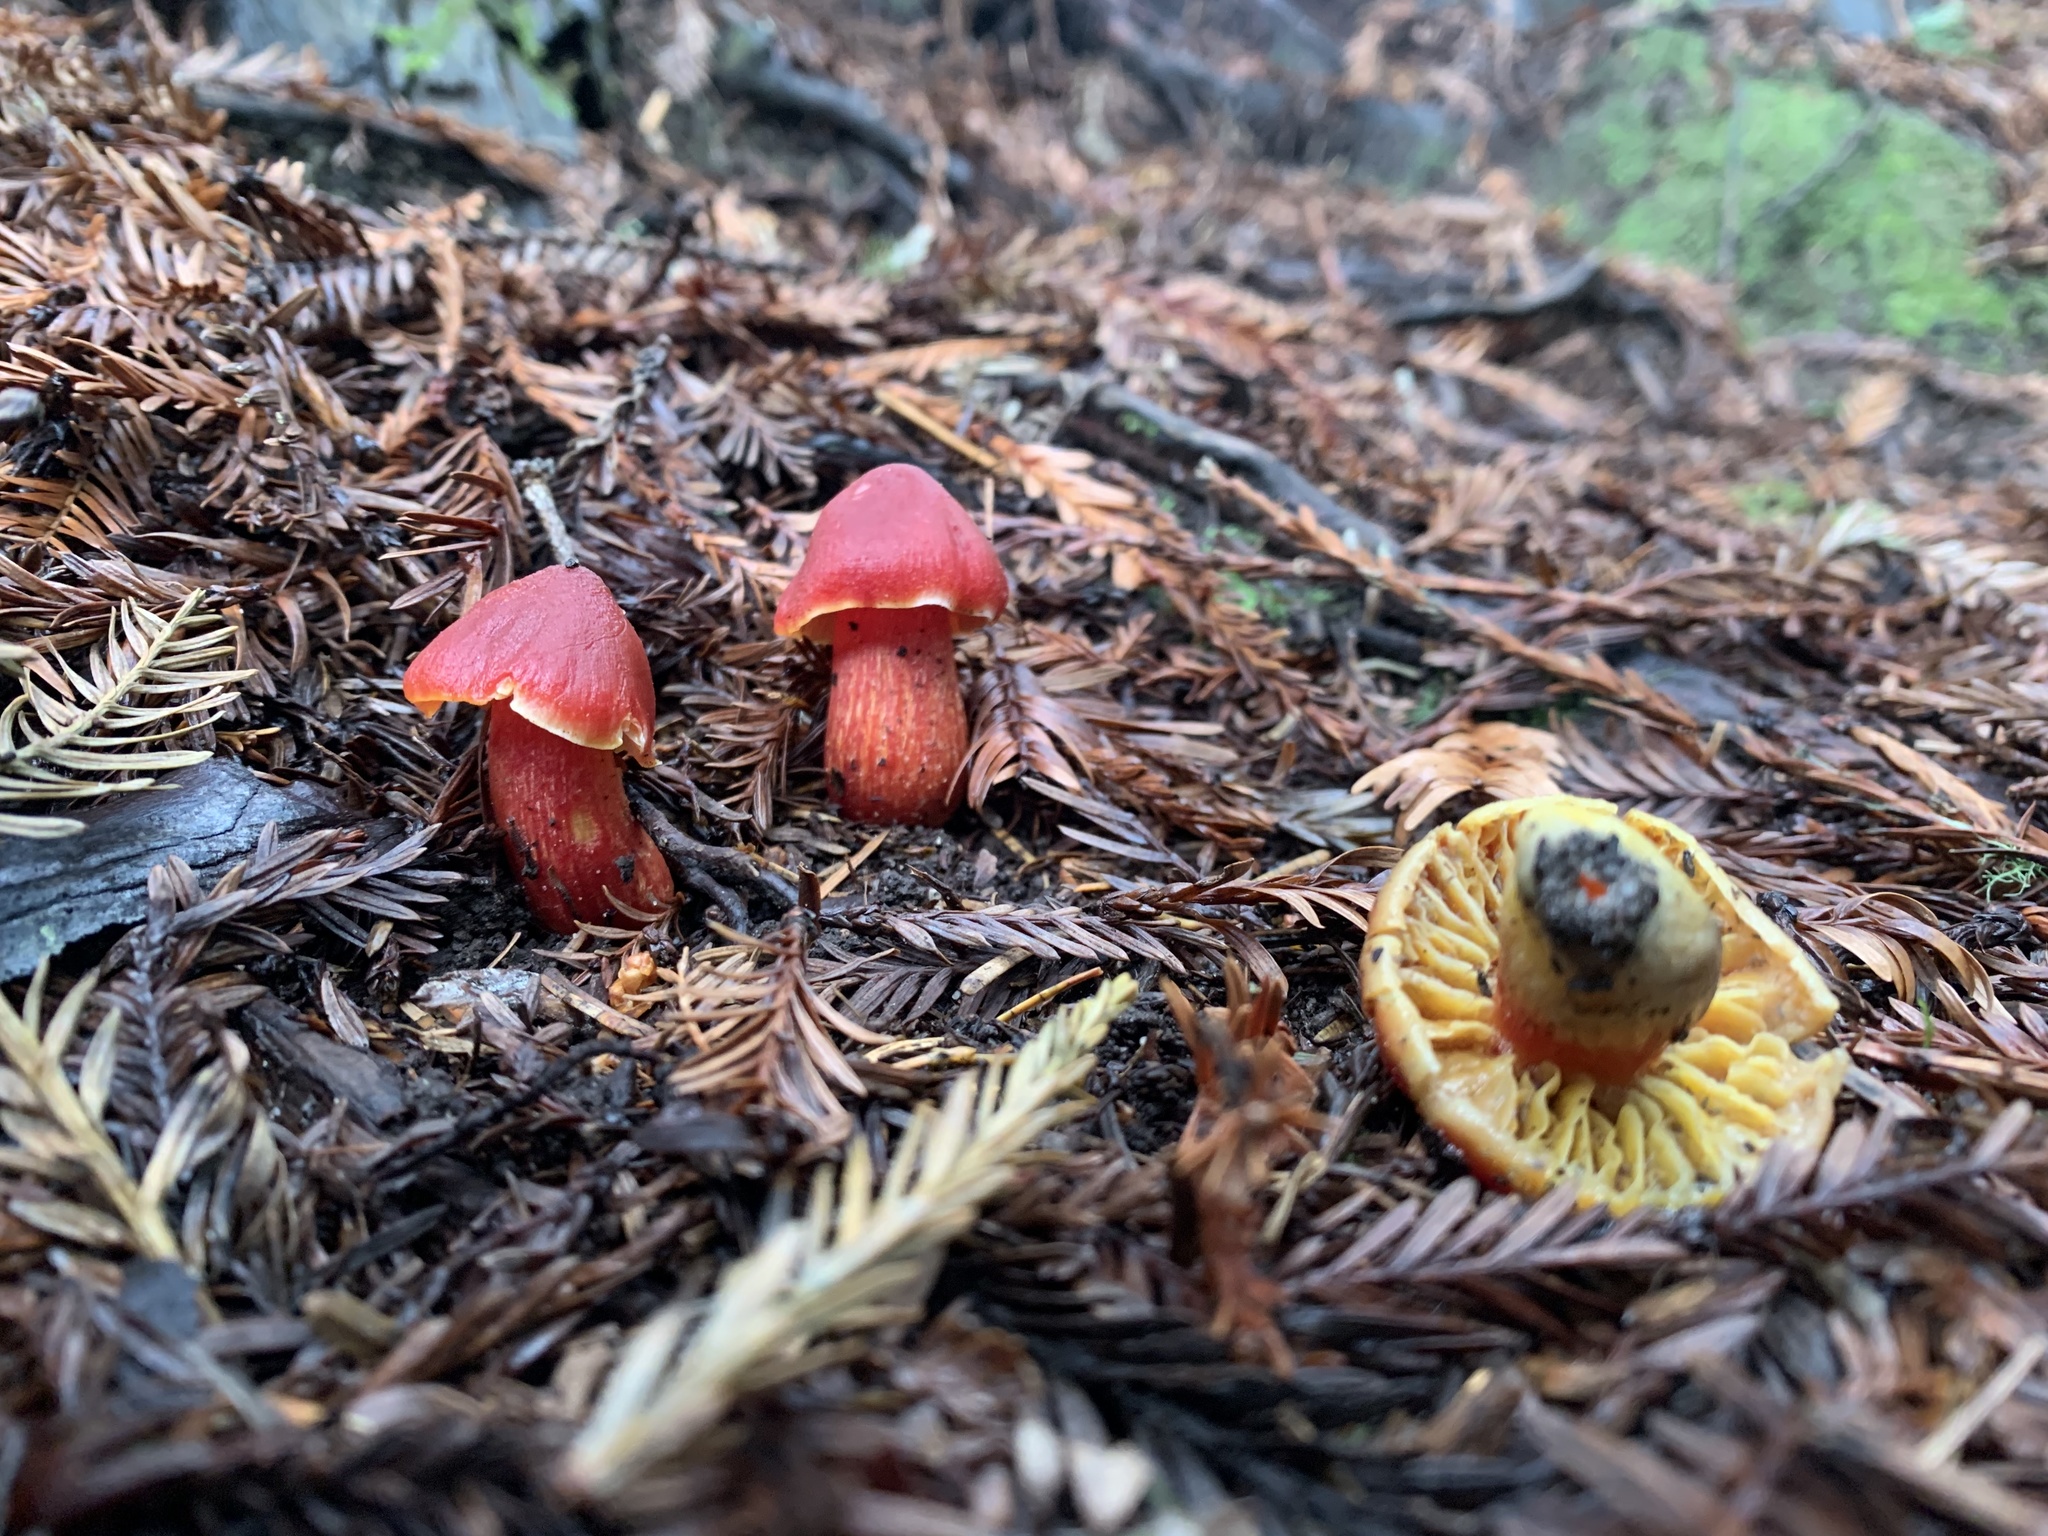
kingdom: Fungi
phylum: Basidiomycota
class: Agaricomycetes
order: Agaricales
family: Hygrophoraceae
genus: Hygrocybe
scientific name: Hygrocybe laetissima
